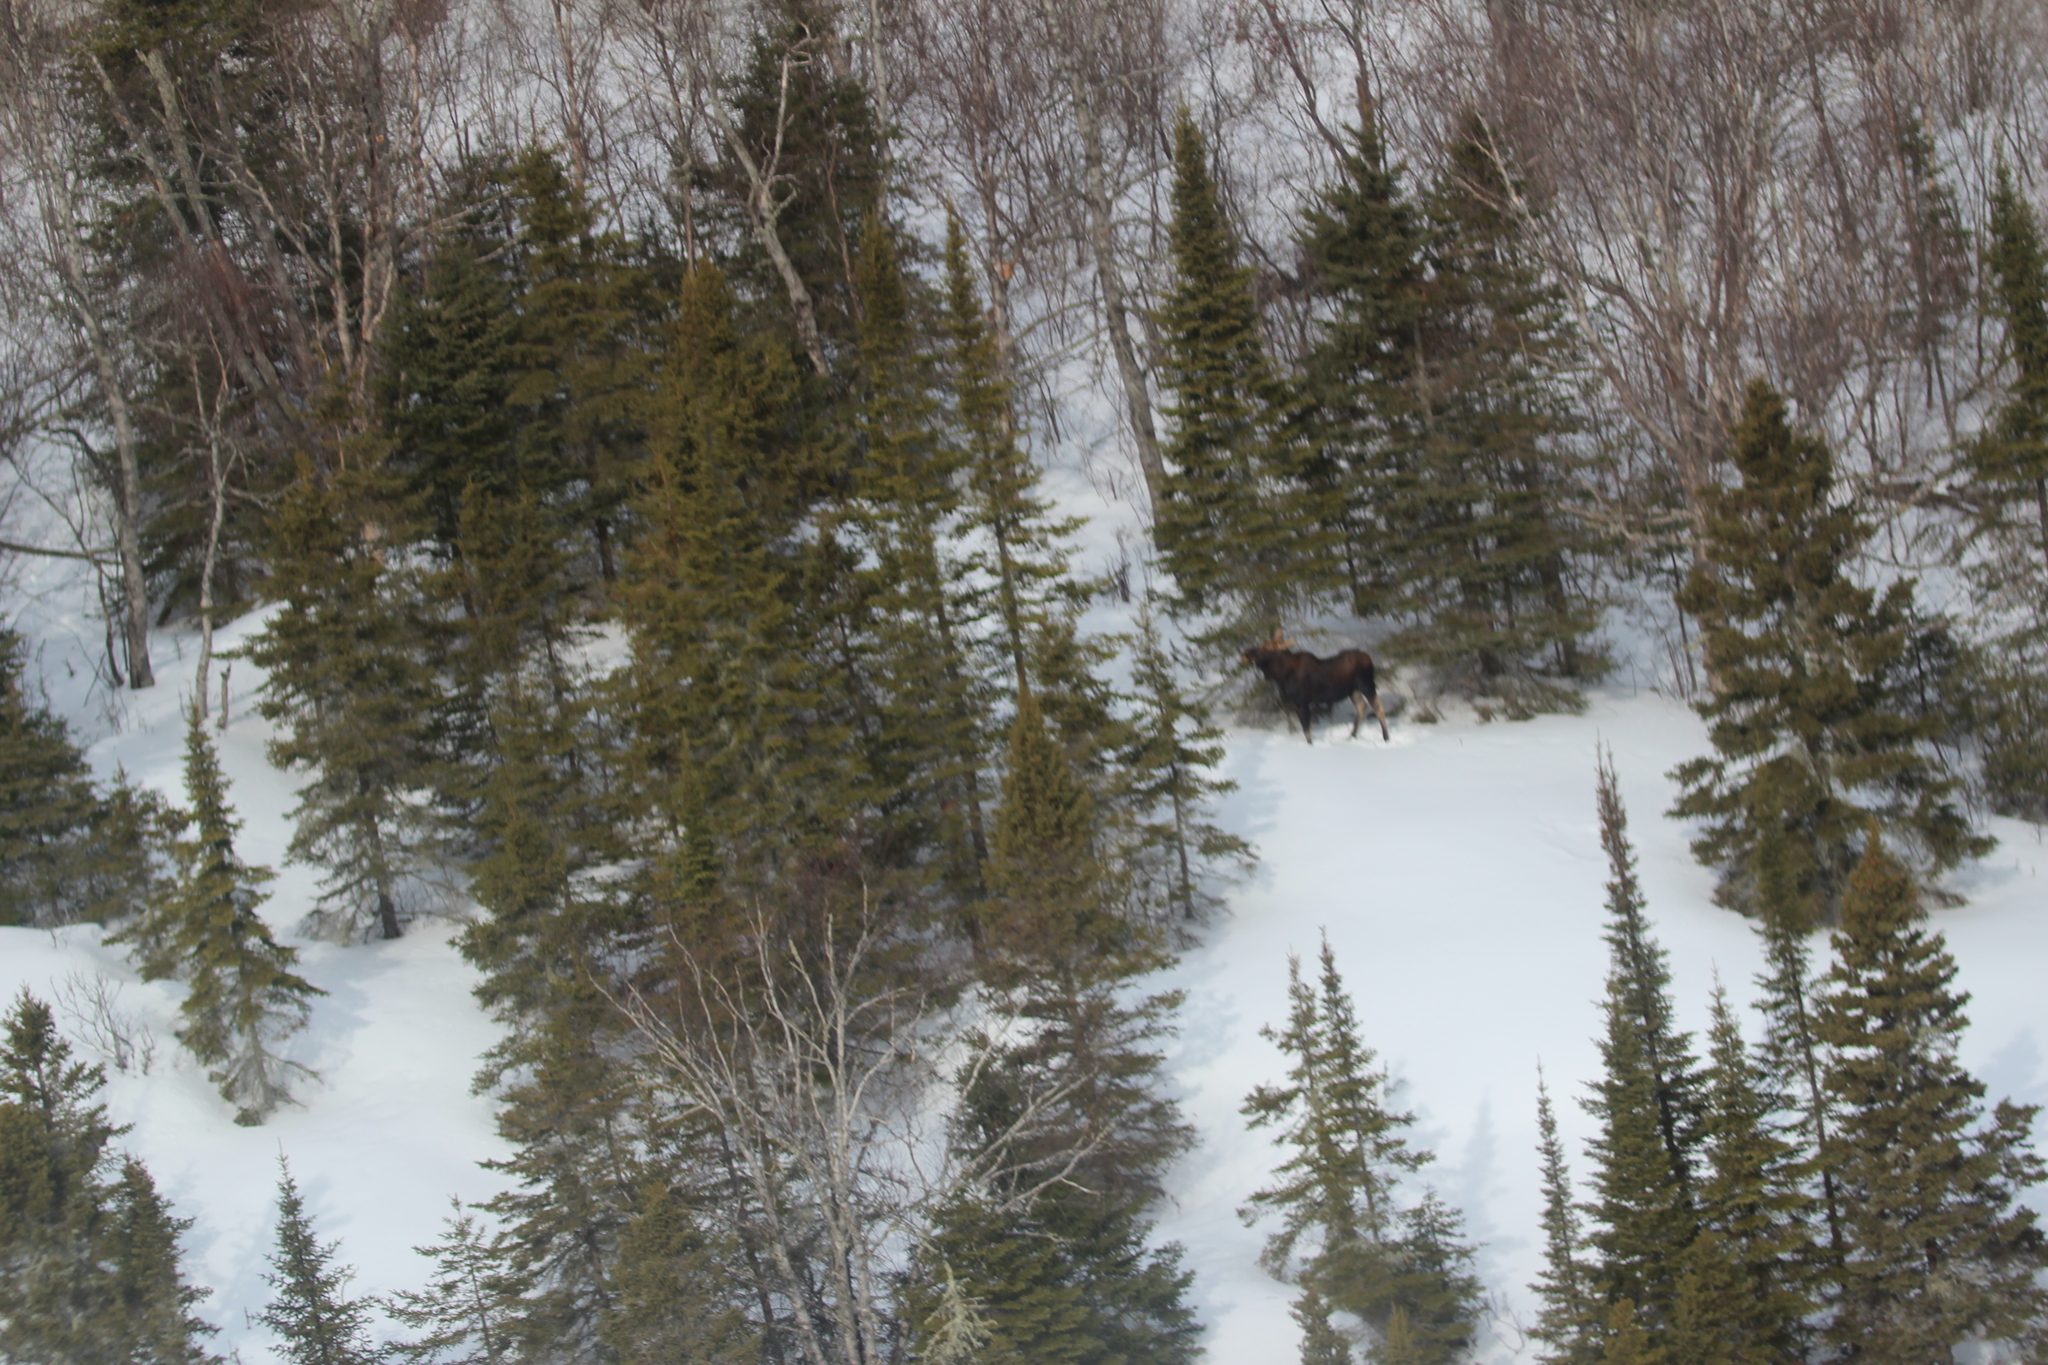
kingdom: Animalia
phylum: Chordata
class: Mammalia
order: Artiodactyla
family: Cervidae
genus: Alces
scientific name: Alces alces
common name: Moose
